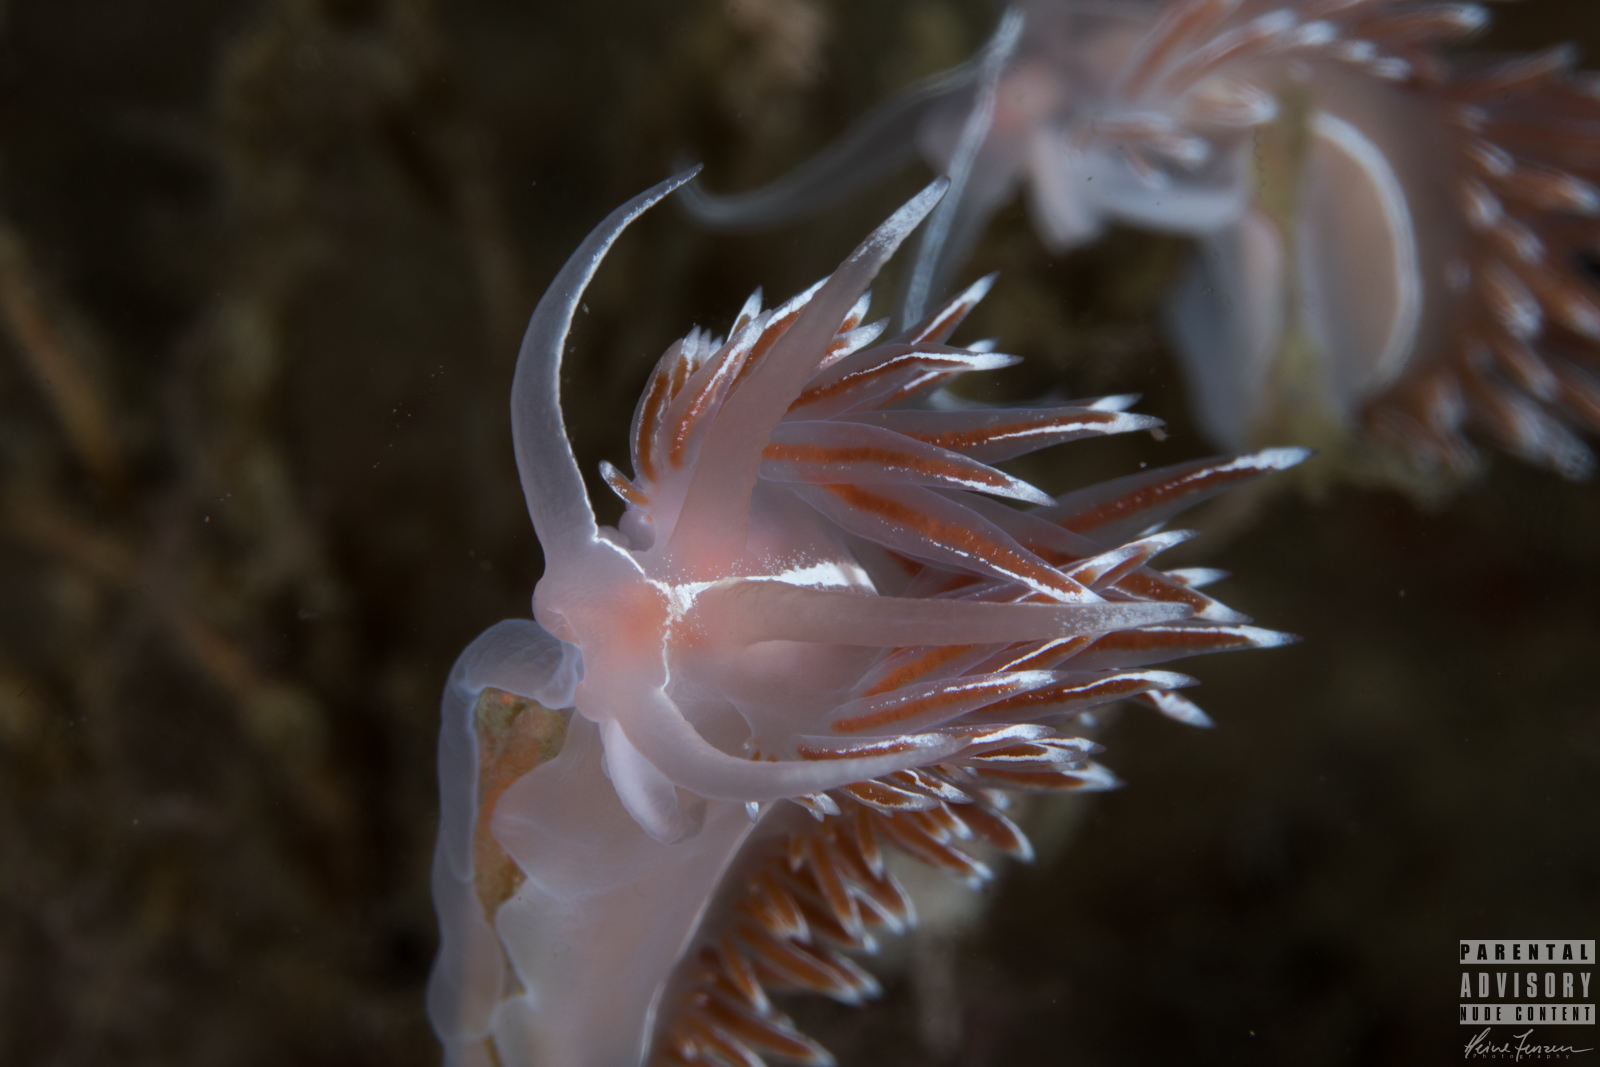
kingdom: Animalia
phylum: Mollusca
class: Gastropoda
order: Nudibranchia
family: Coryphellidae
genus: Coryphella
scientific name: Coryphella lineata
